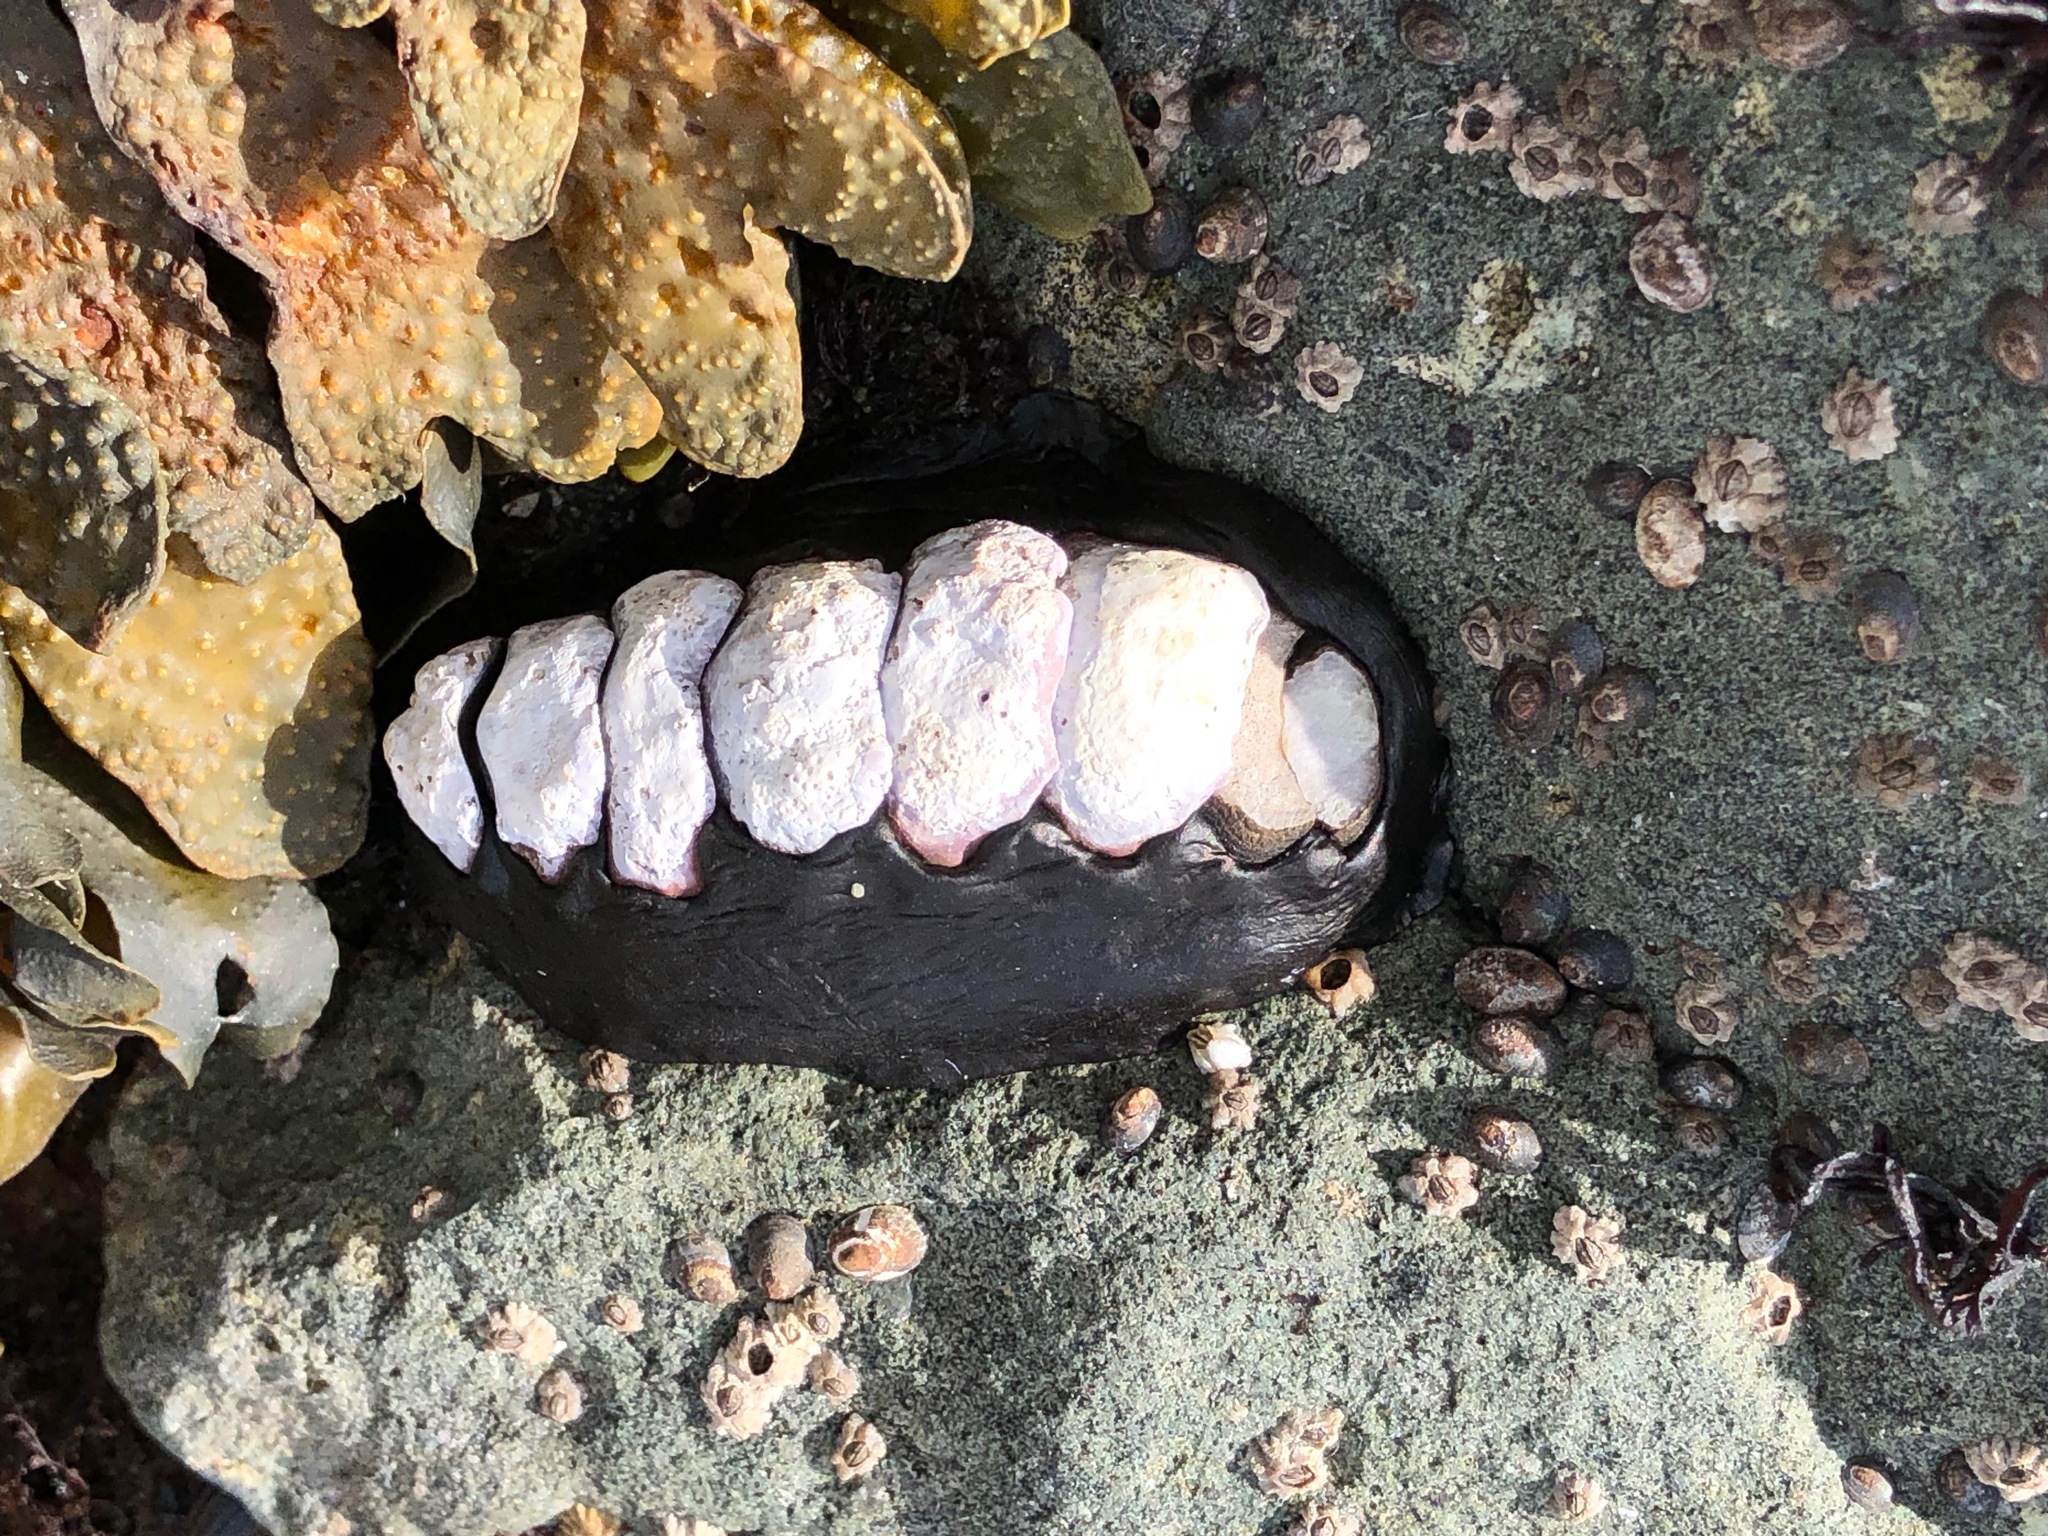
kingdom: Animalia
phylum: Mollusca
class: Polyplacophora
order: Chitonida
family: Mopaliidae
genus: Katharina
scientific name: Katharina tunicata
